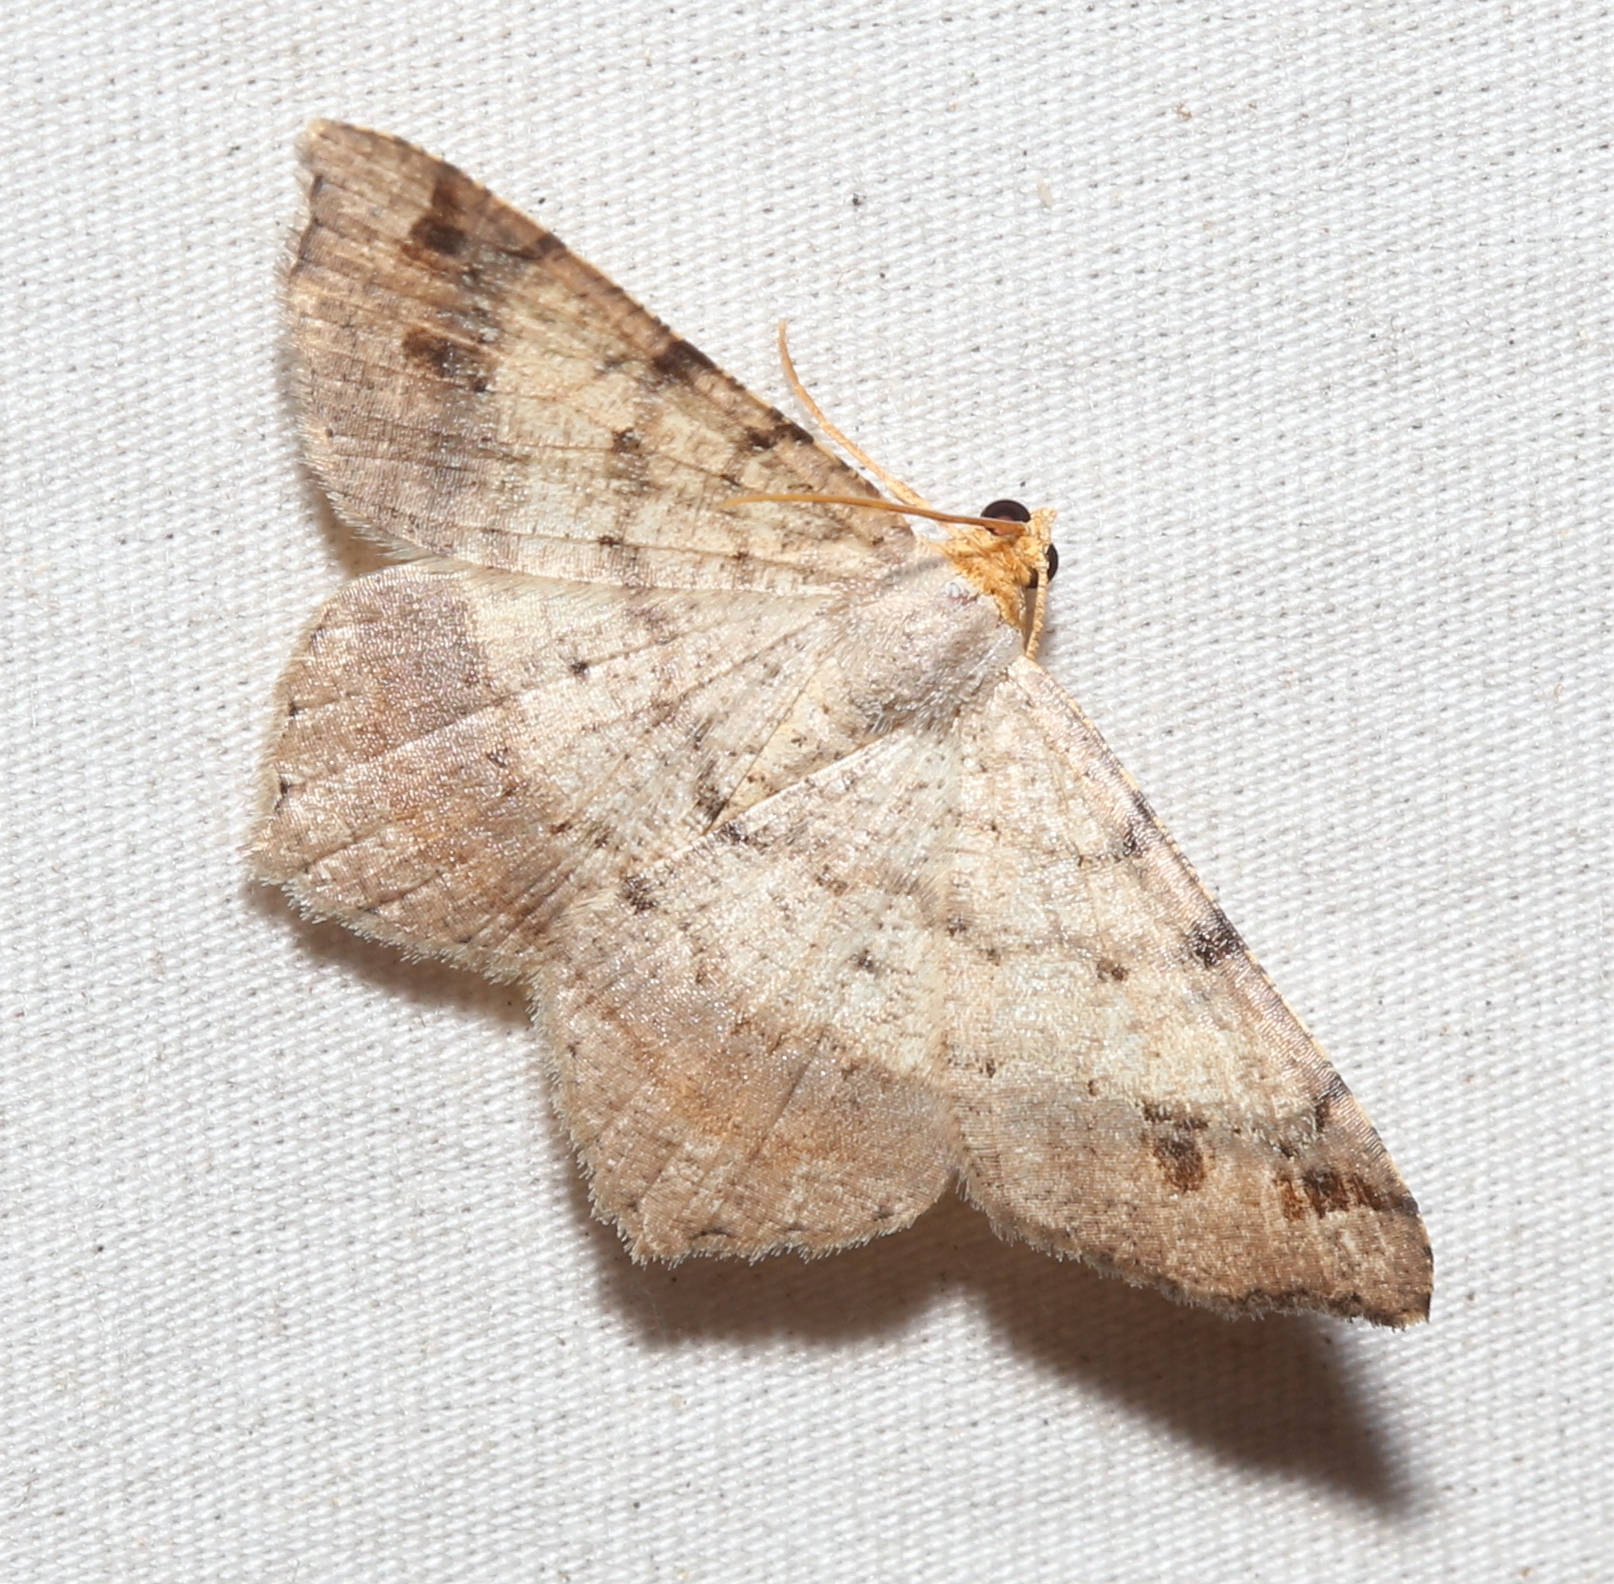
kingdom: Animalia
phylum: Arthropoda
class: Insecta
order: Lepidoptera
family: Geometridae
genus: Macaria
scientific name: Macaria bicolorata
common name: Dingy angle
